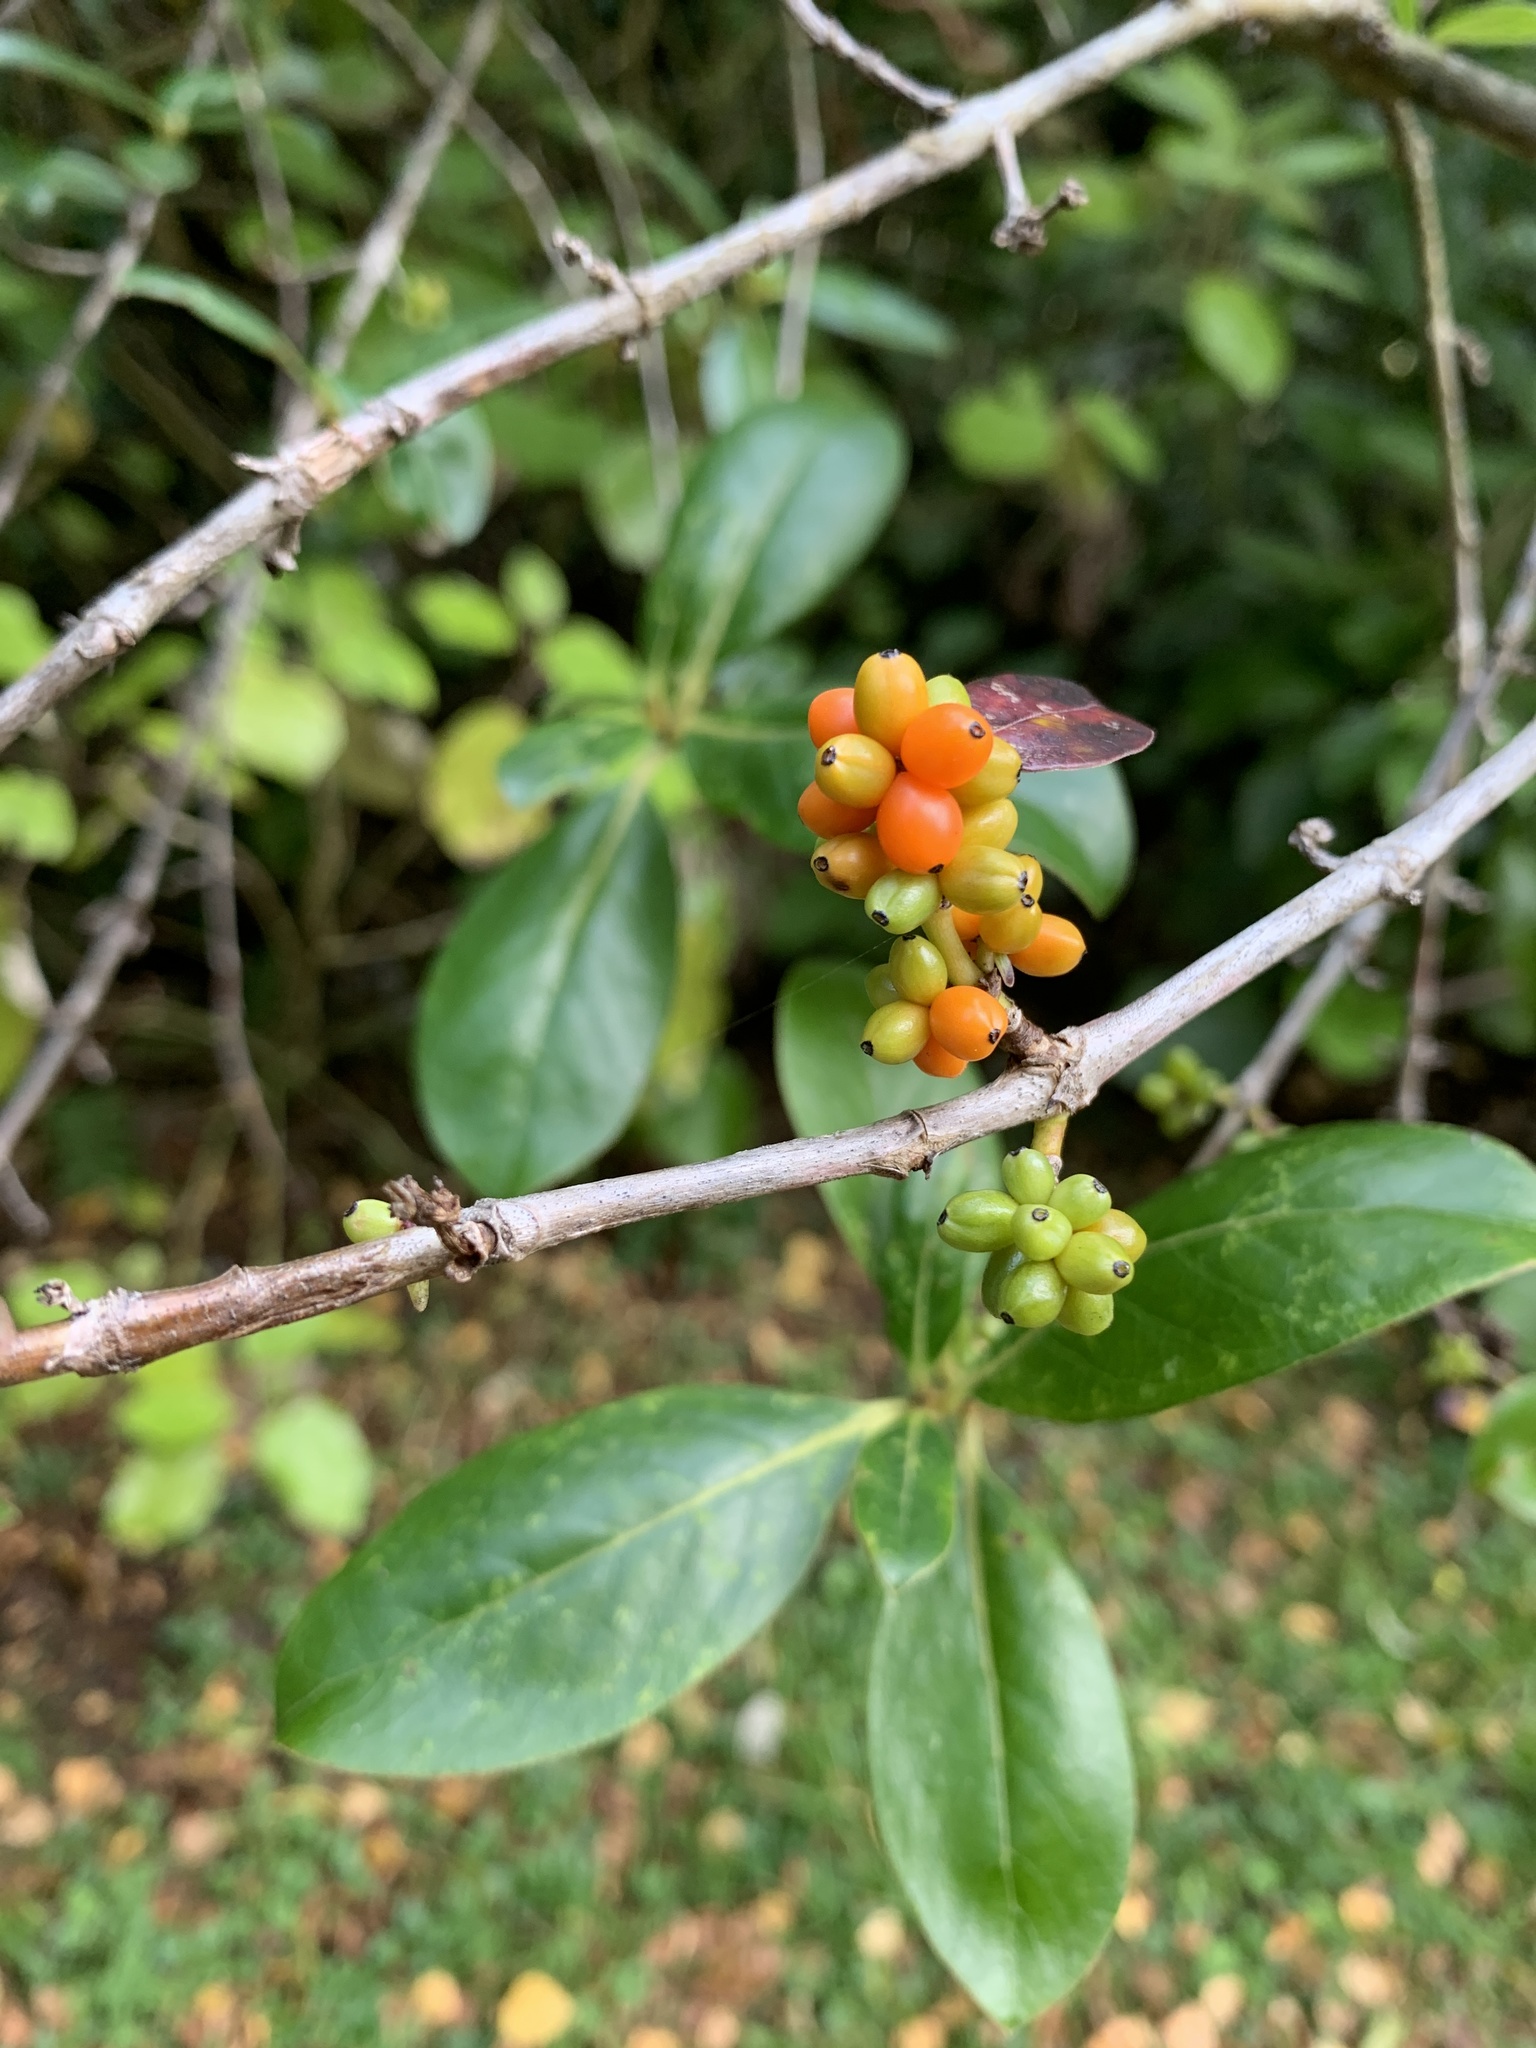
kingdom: Plantae
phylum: Tracheophyta
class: Magnoliopsida
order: Gentianales
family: Rubiaceae
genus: Coprosma
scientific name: Coprosma robusta
